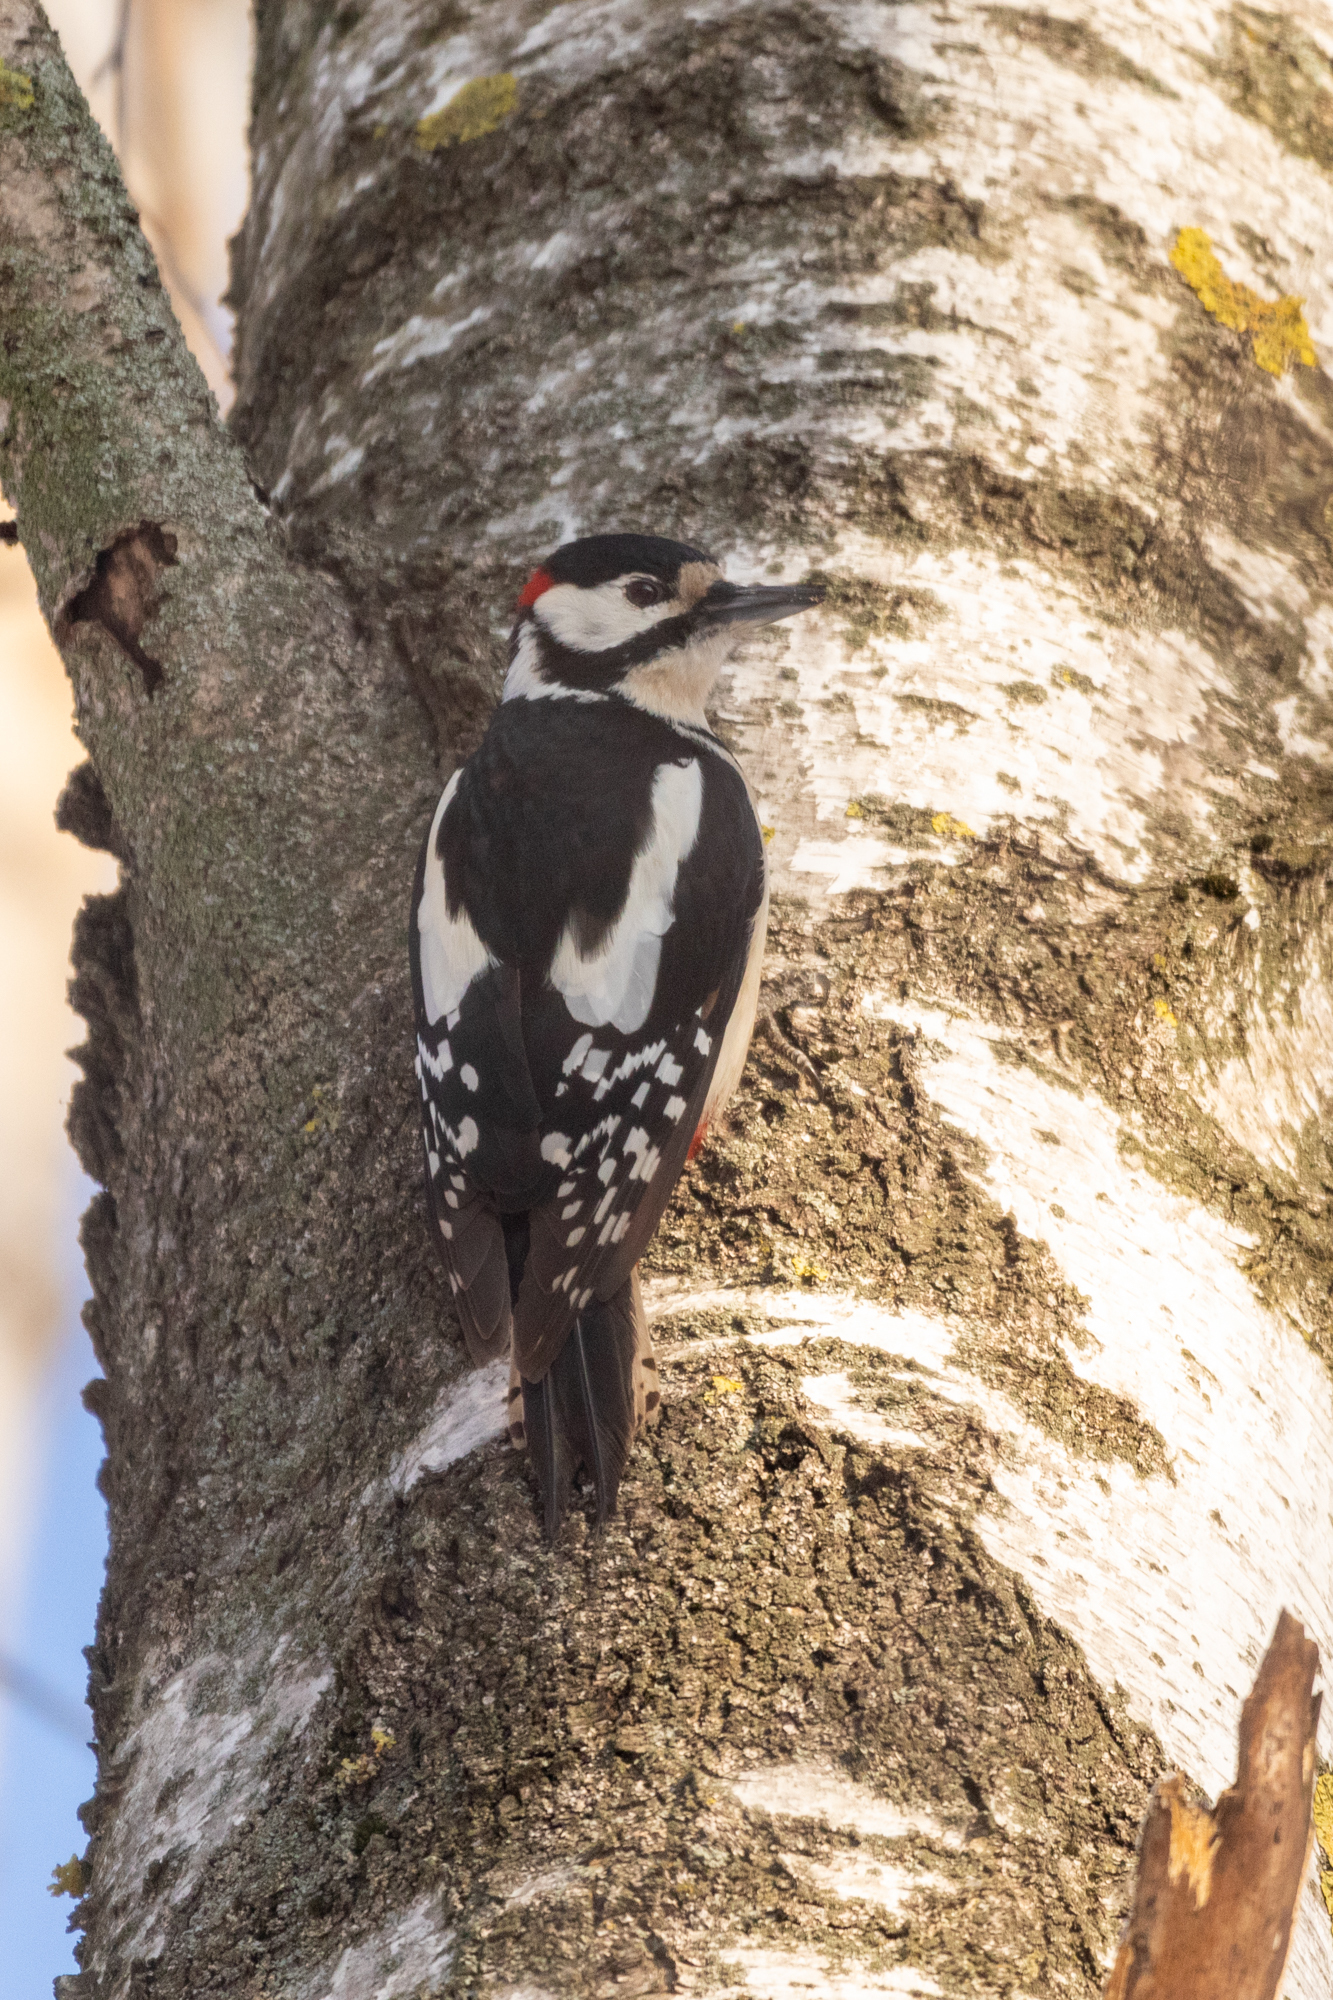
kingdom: Animalia
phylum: Chordata
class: Aves
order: Piciformes
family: Picidae
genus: Dendrocopos
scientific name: Dendrocopos major
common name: Great spotted woodpecker
